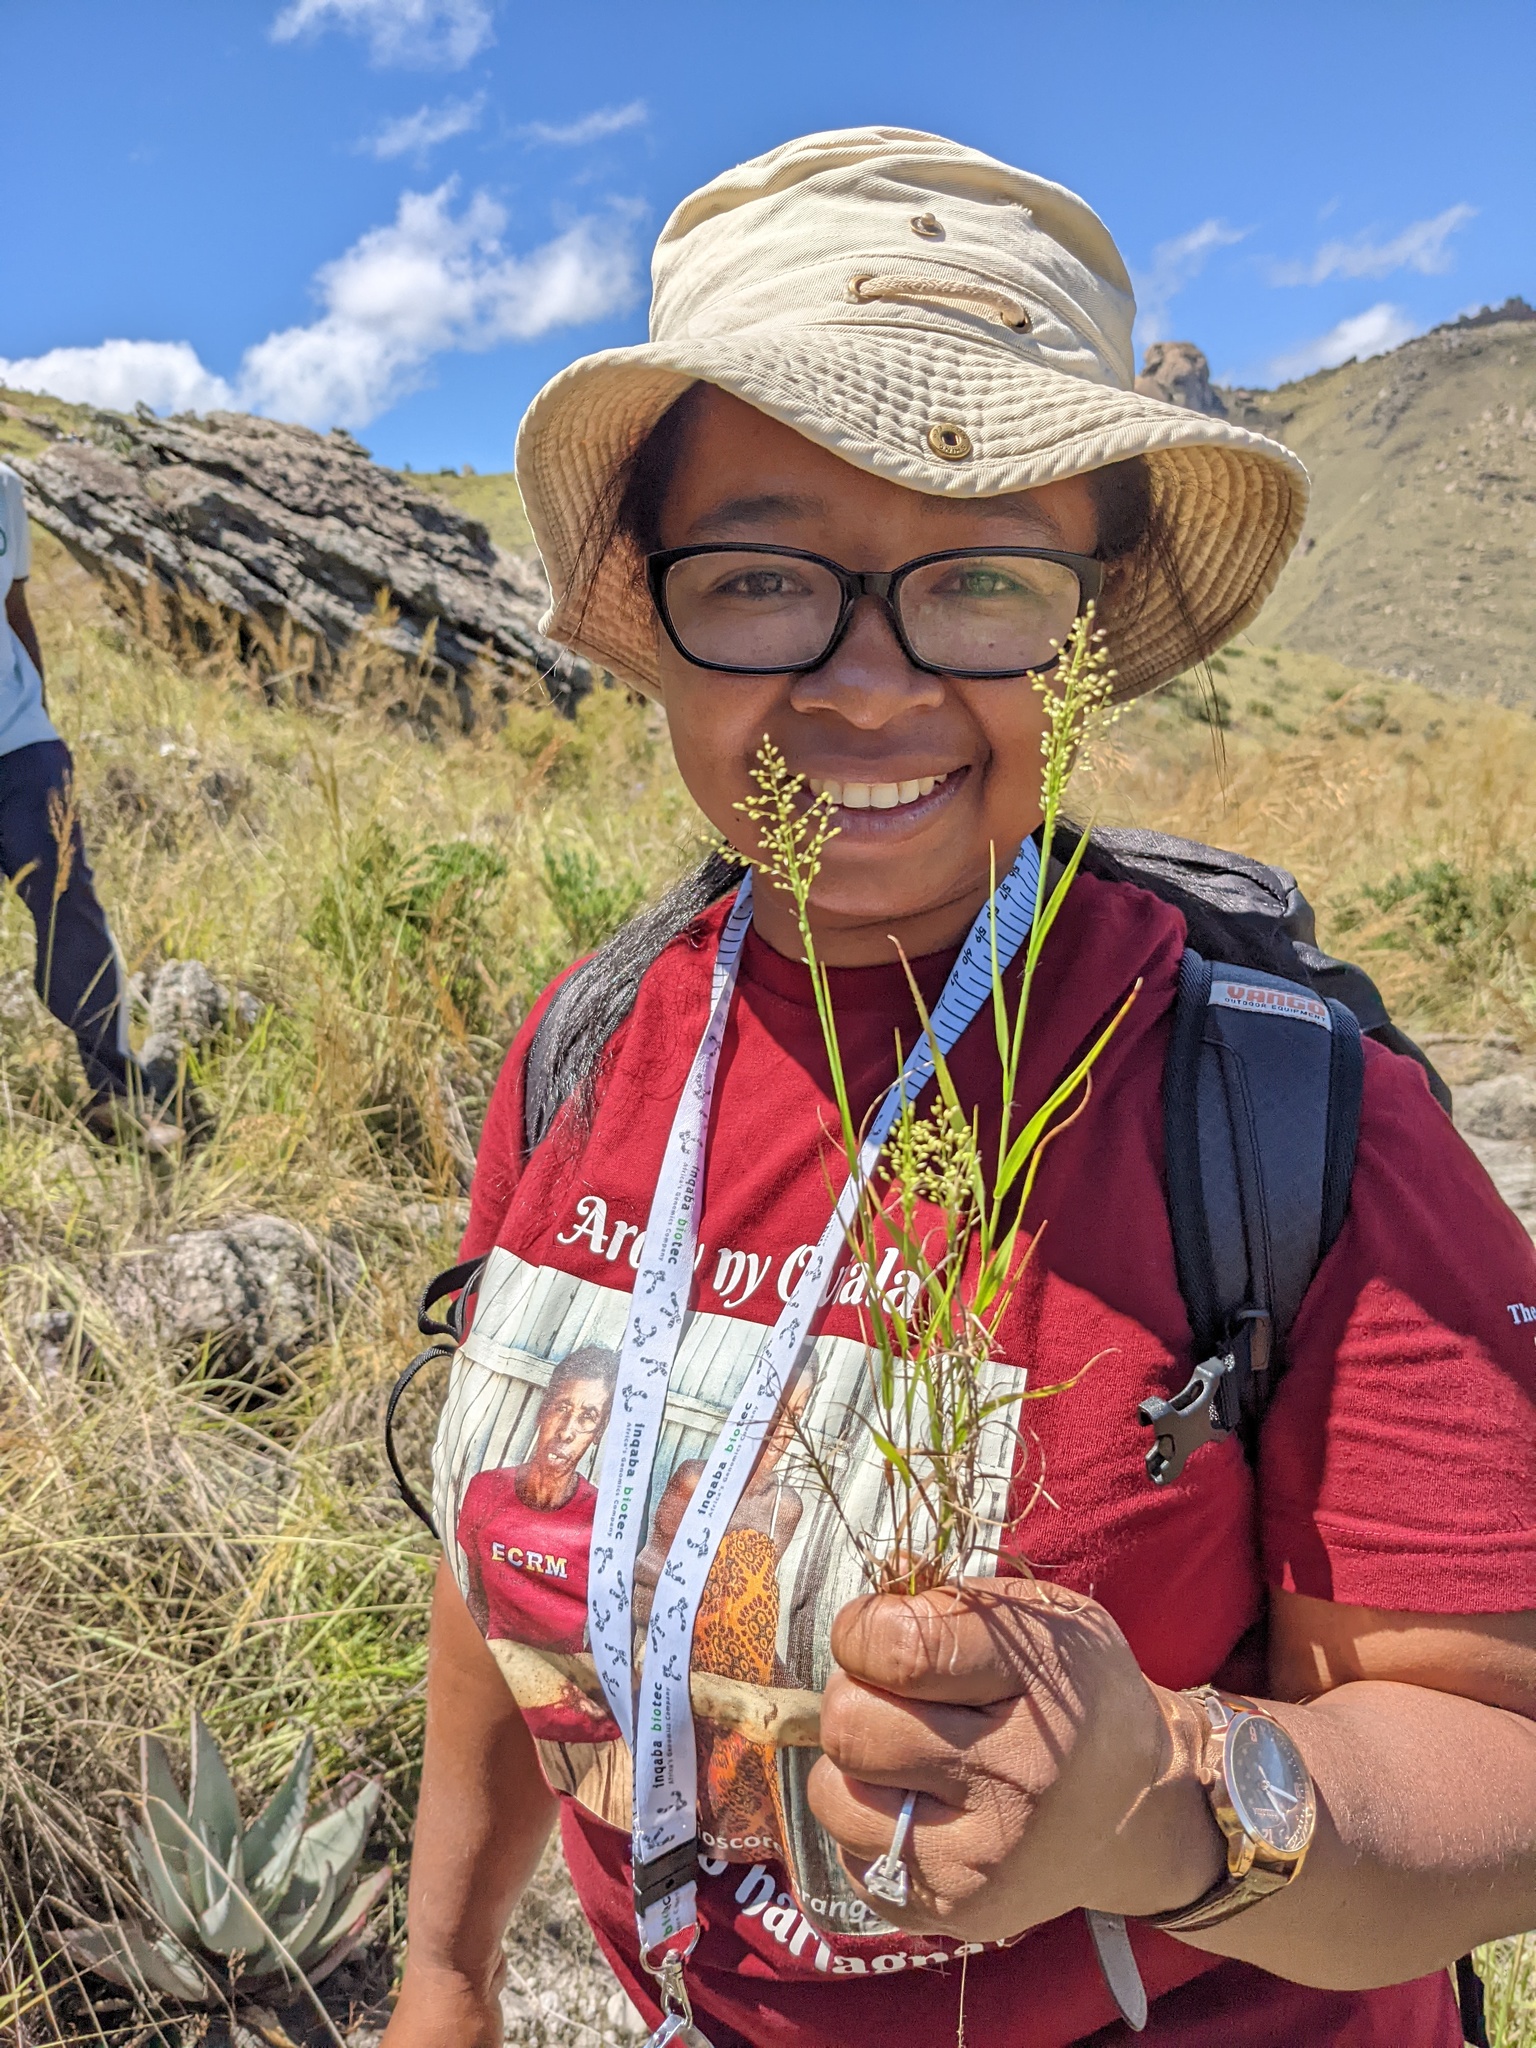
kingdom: Plantae
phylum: Tracheophyta
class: Liliopsida
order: Poales
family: Poaceae
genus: Panicum
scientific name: Panicum subhystrix
